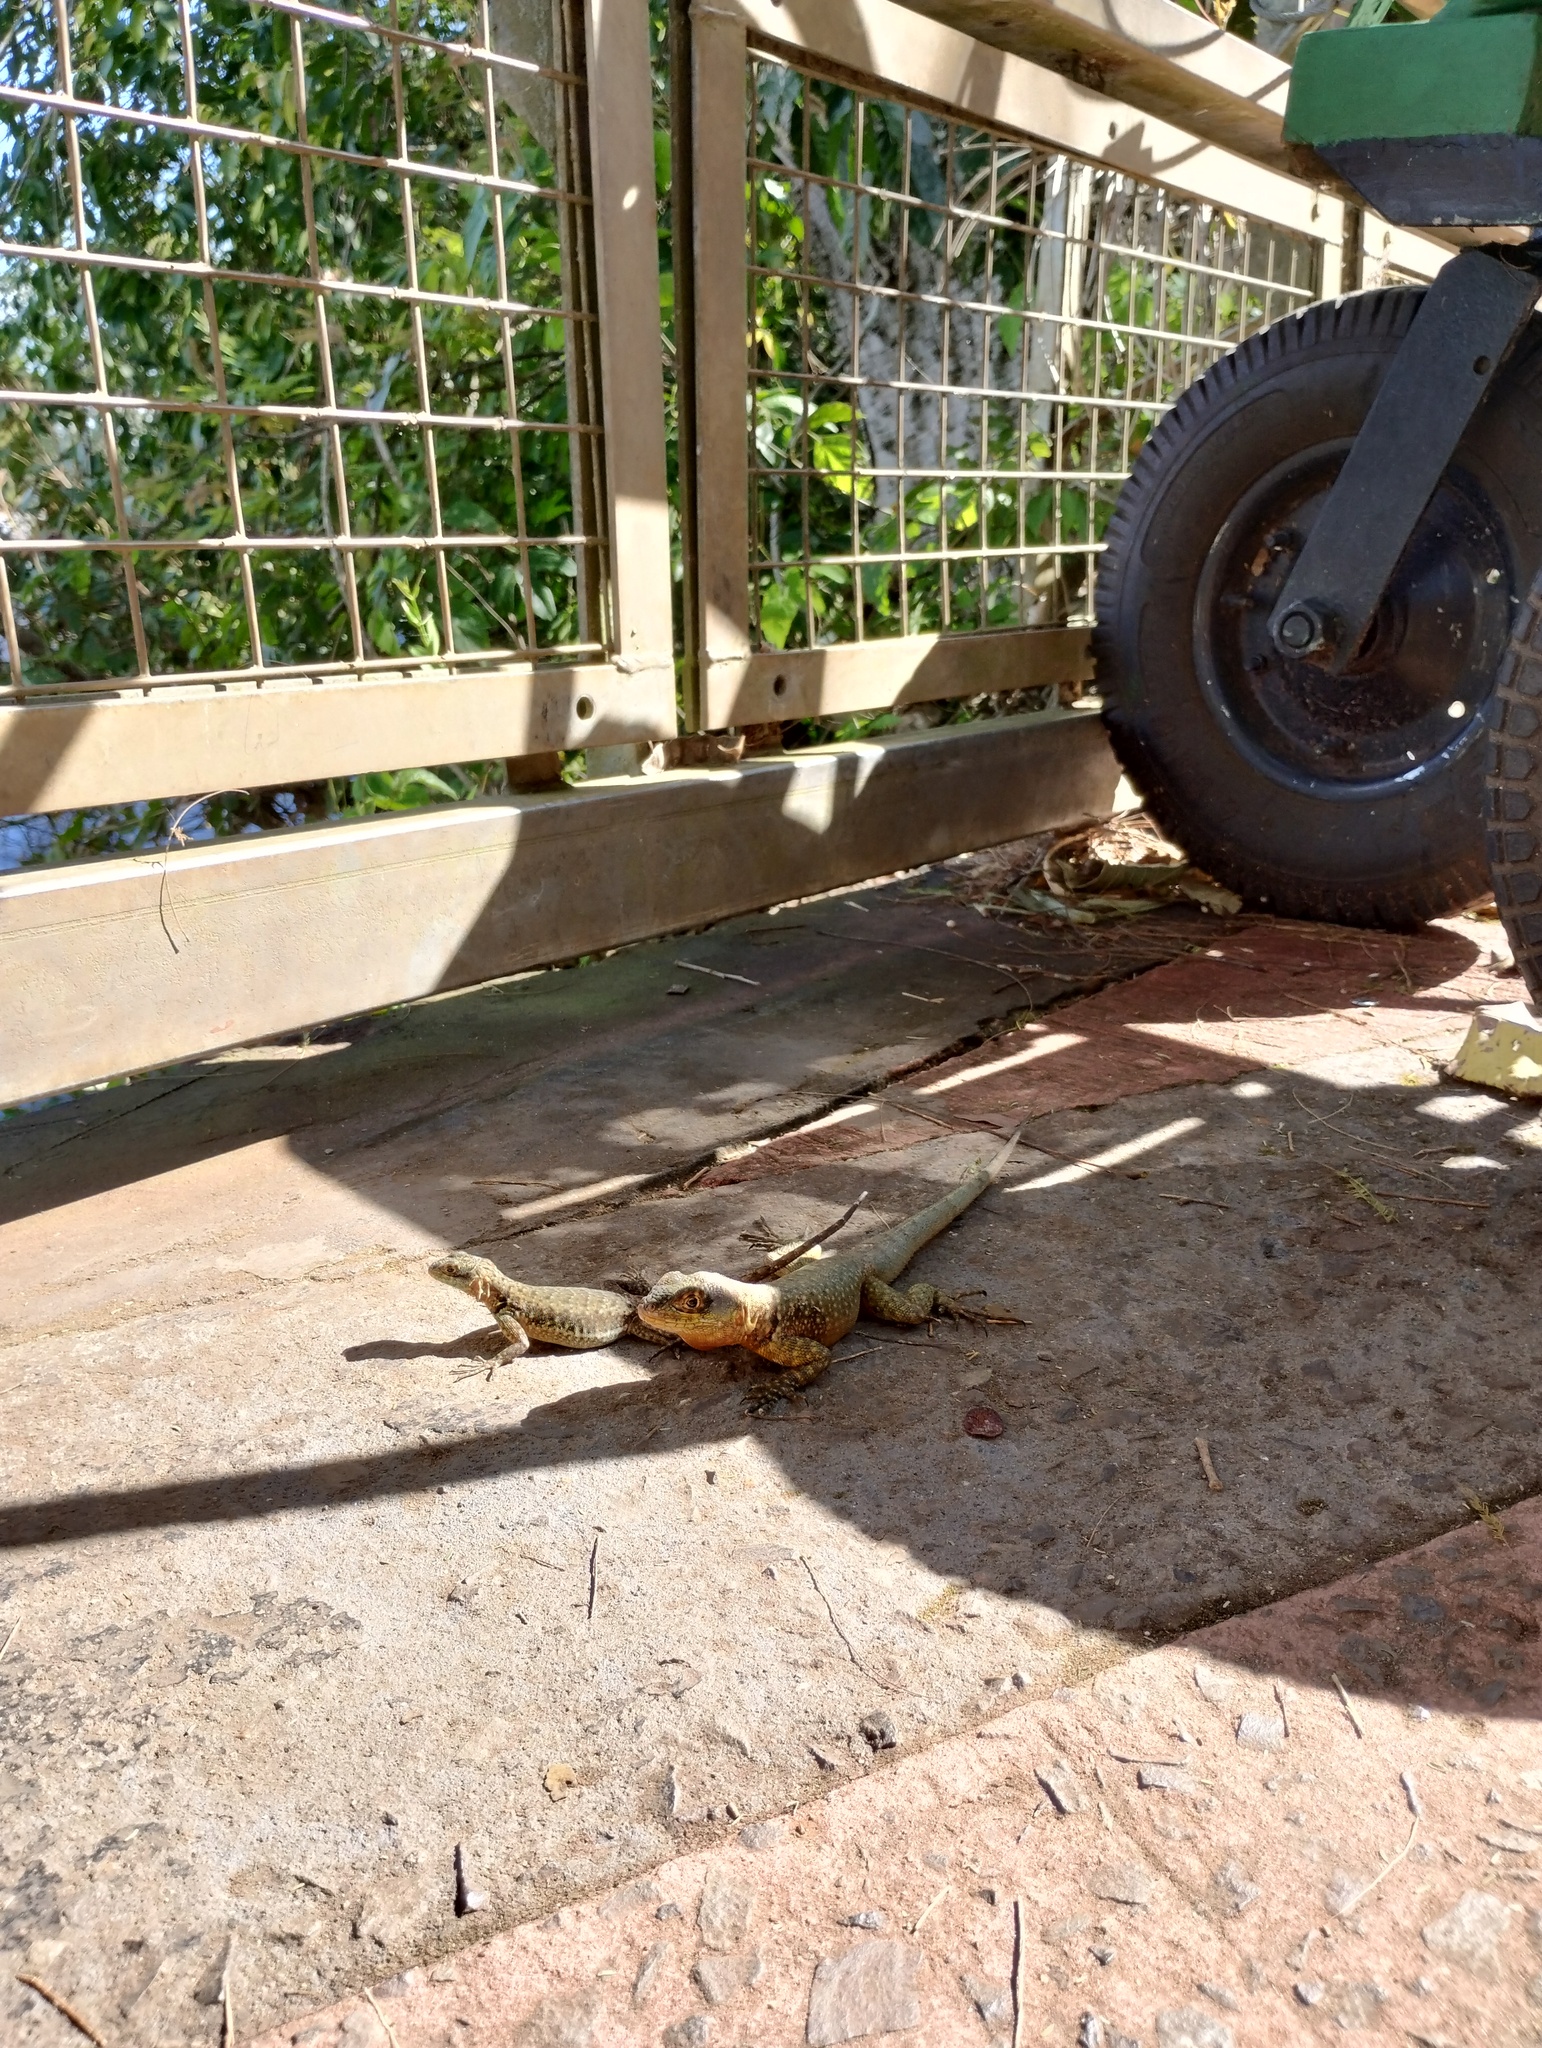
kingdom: Animalia
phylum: Chordata
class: Squamata
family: Tropiduridae
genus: Tropidurus
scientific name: Tropidurus catalanensis
